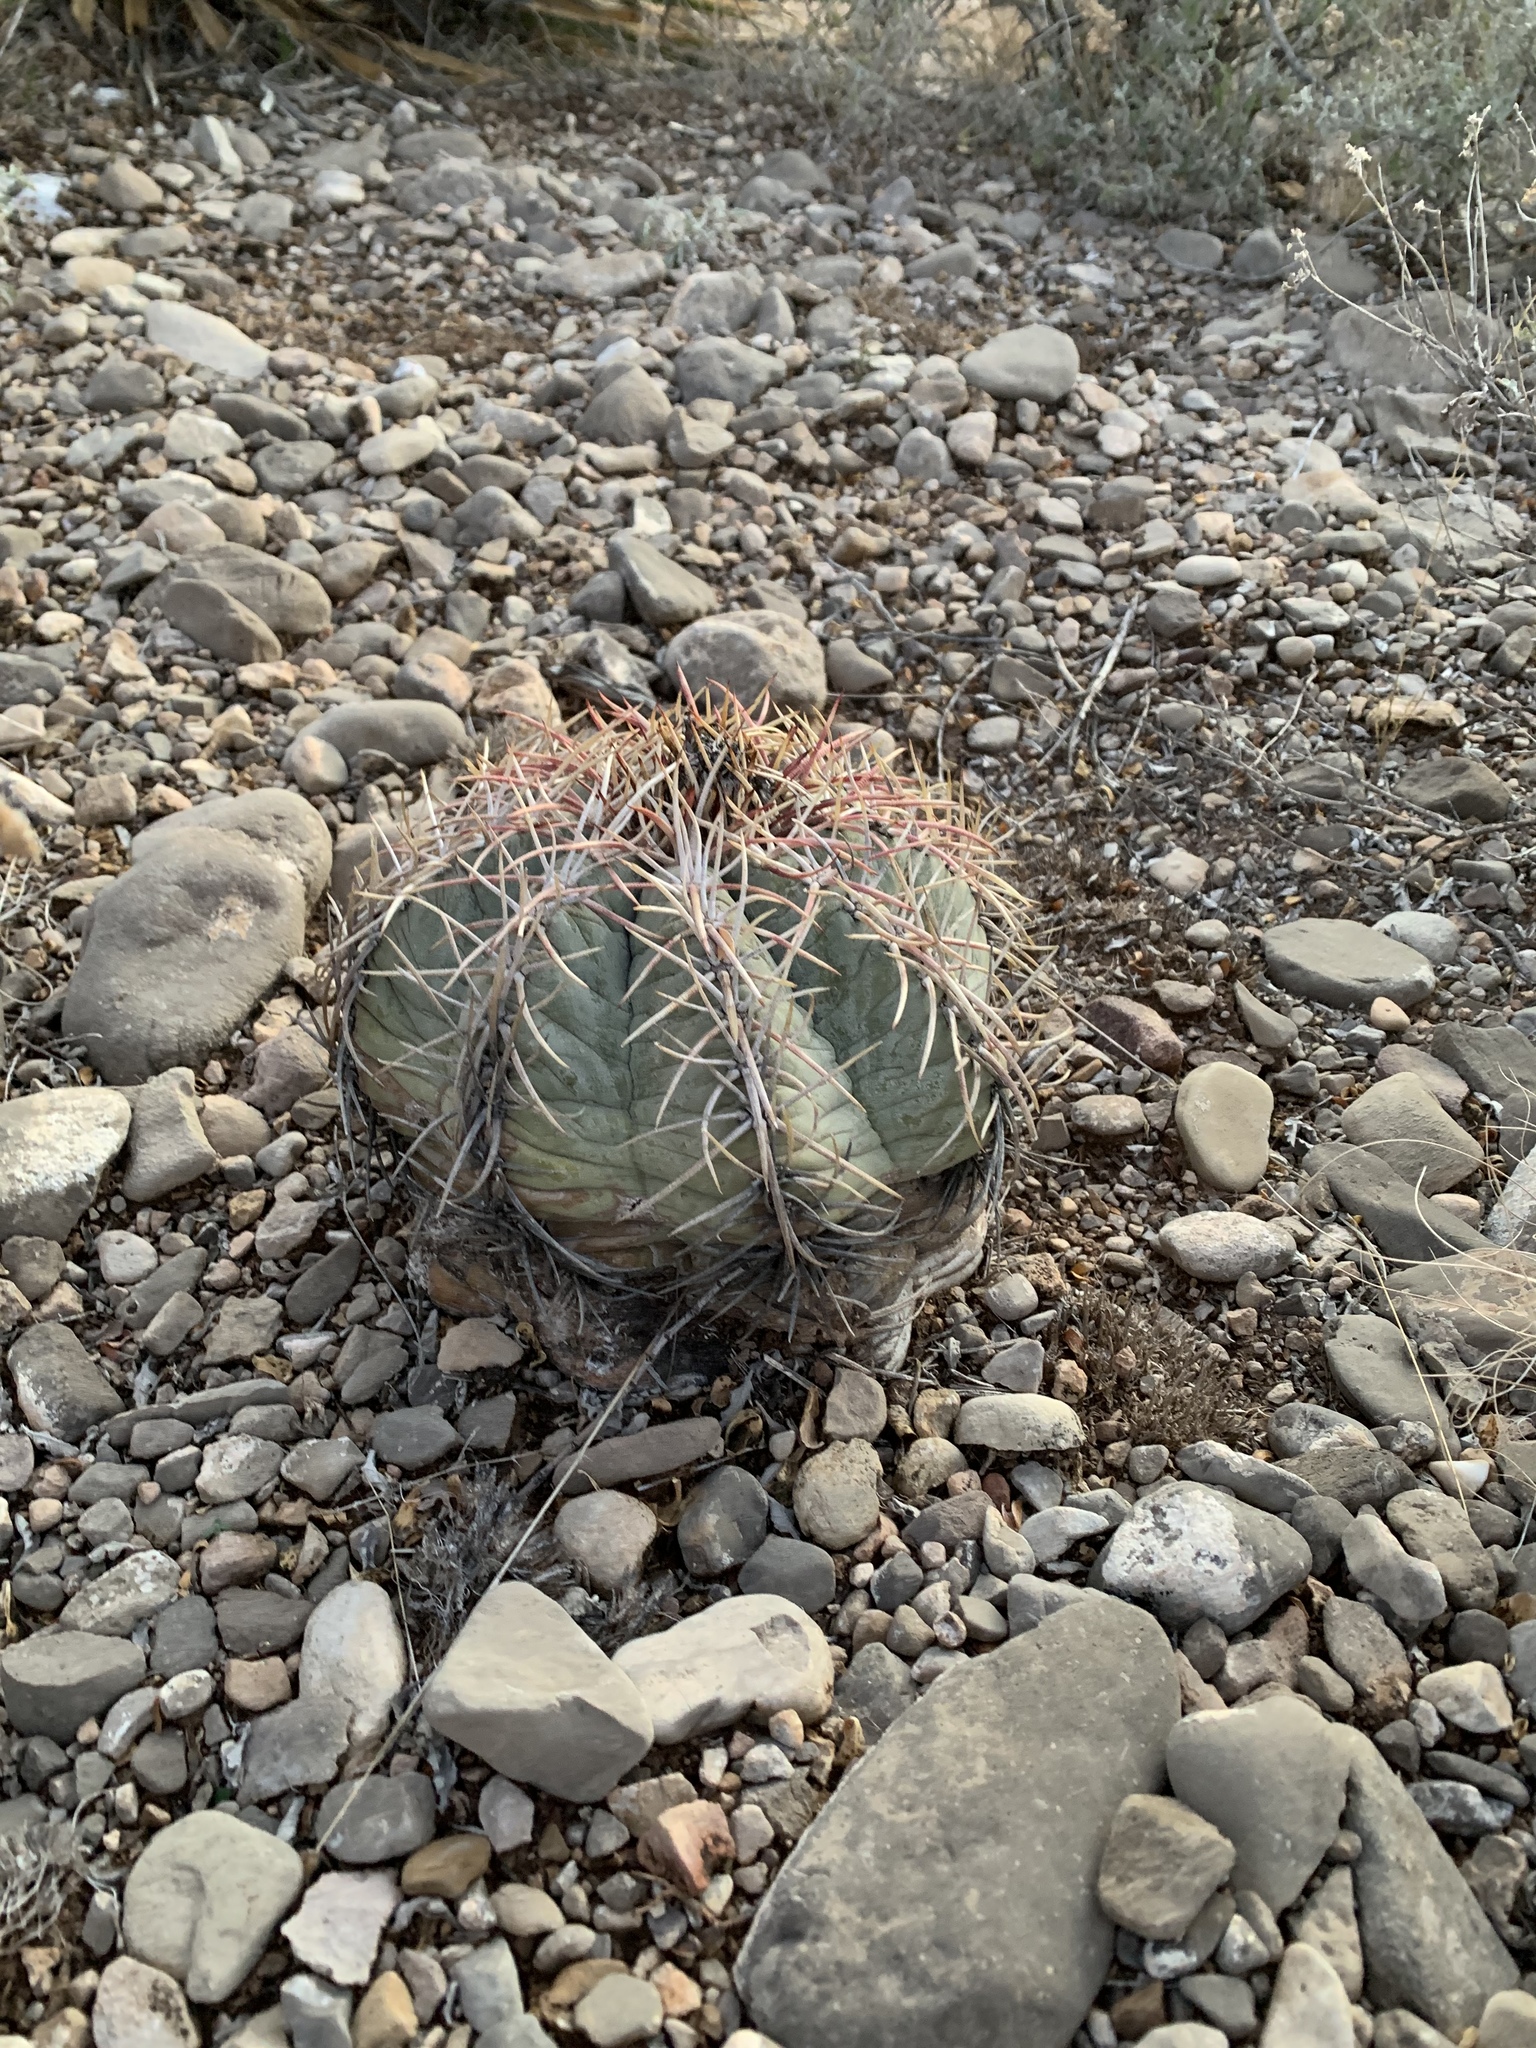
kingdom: Plantae
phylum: Tracheophyta
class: Magnoliopsida
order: Caryophyllales
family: Cactaceae
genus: Echinocactus
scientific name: Echinocactus horizonthalonius
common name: Devilshead
